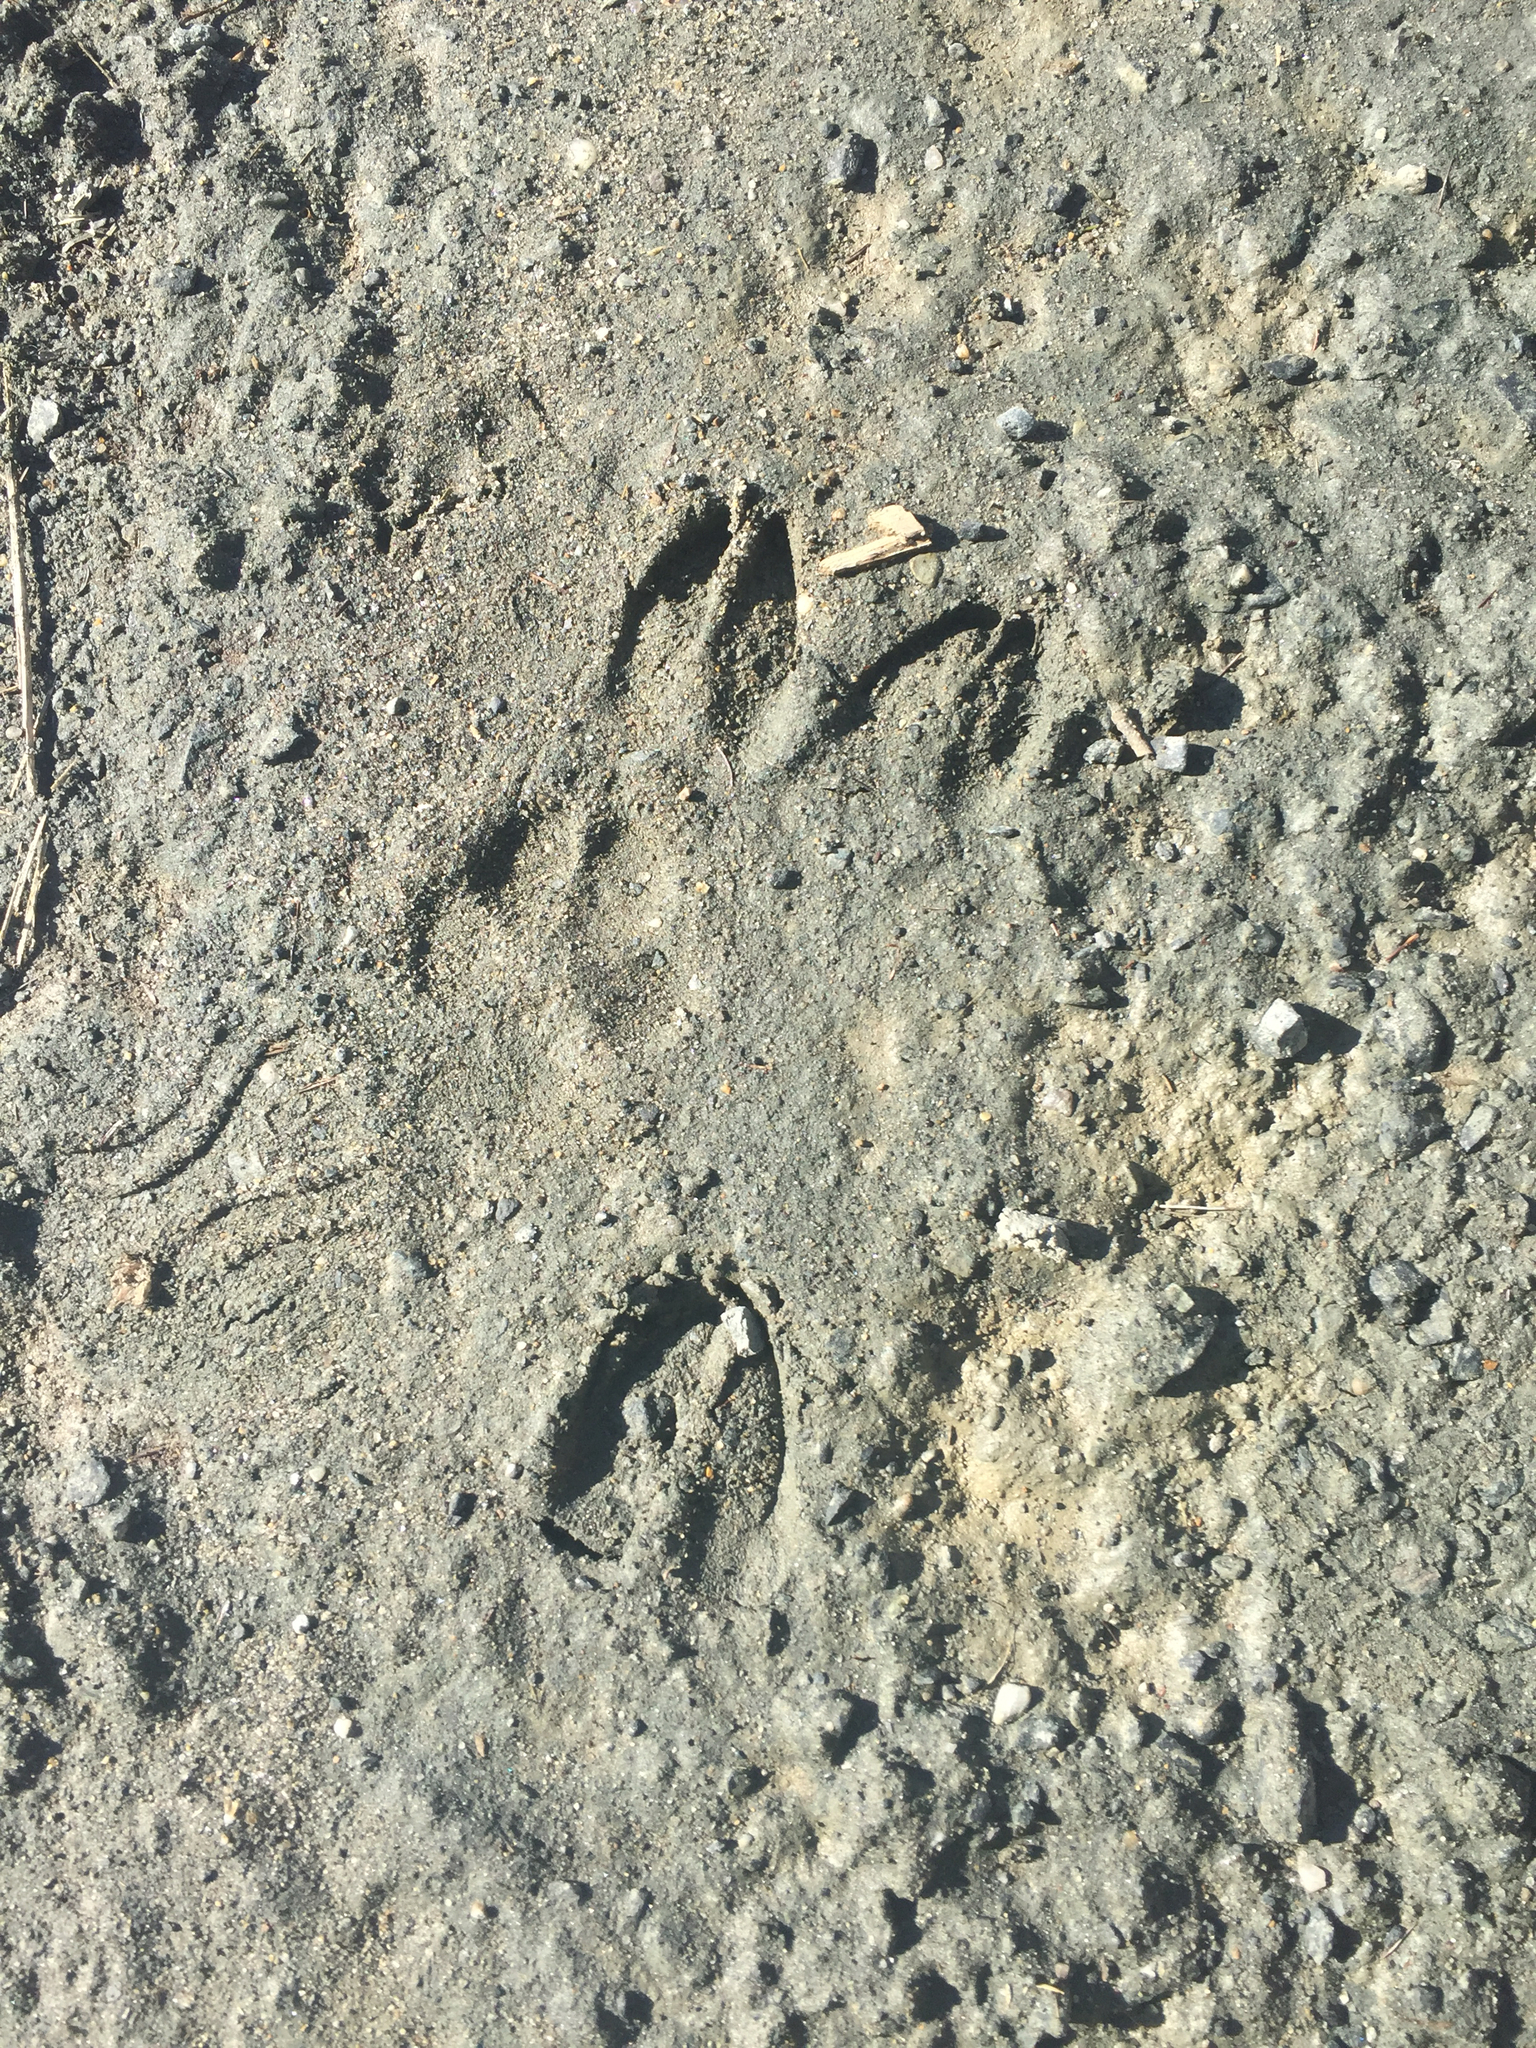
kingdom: Animalia
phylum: Chordata
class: Mammalia
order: Artiodactyla
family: Cervidae
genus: Odocoileus
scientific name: Odocoileus virginianus
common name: White-tailed deer
